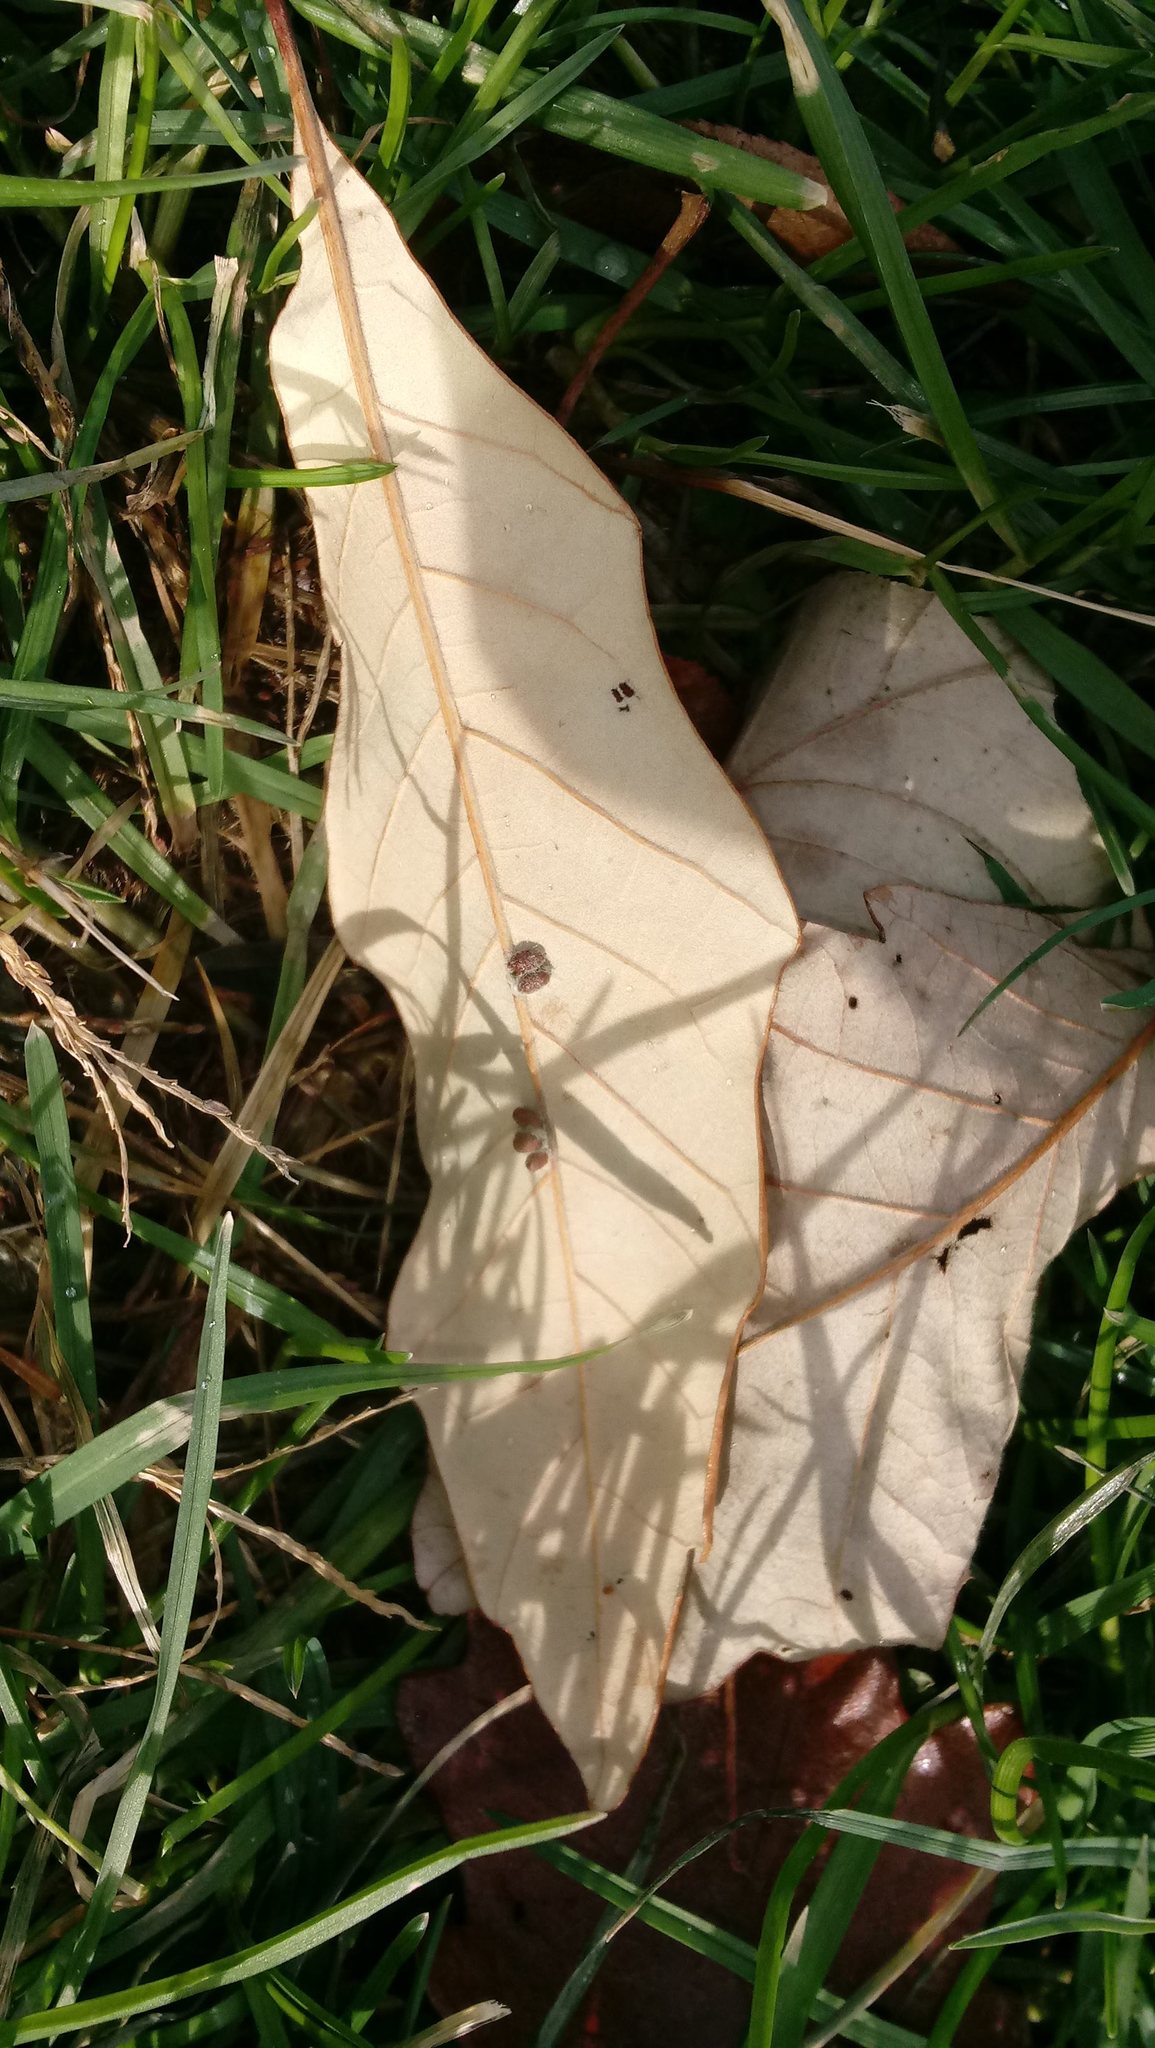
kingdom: Animalia
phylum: Arthropoda
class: Insecta
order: Hymenoptera
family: Cynipidae
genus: Andricus
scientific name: Andricus Druon ignotum
